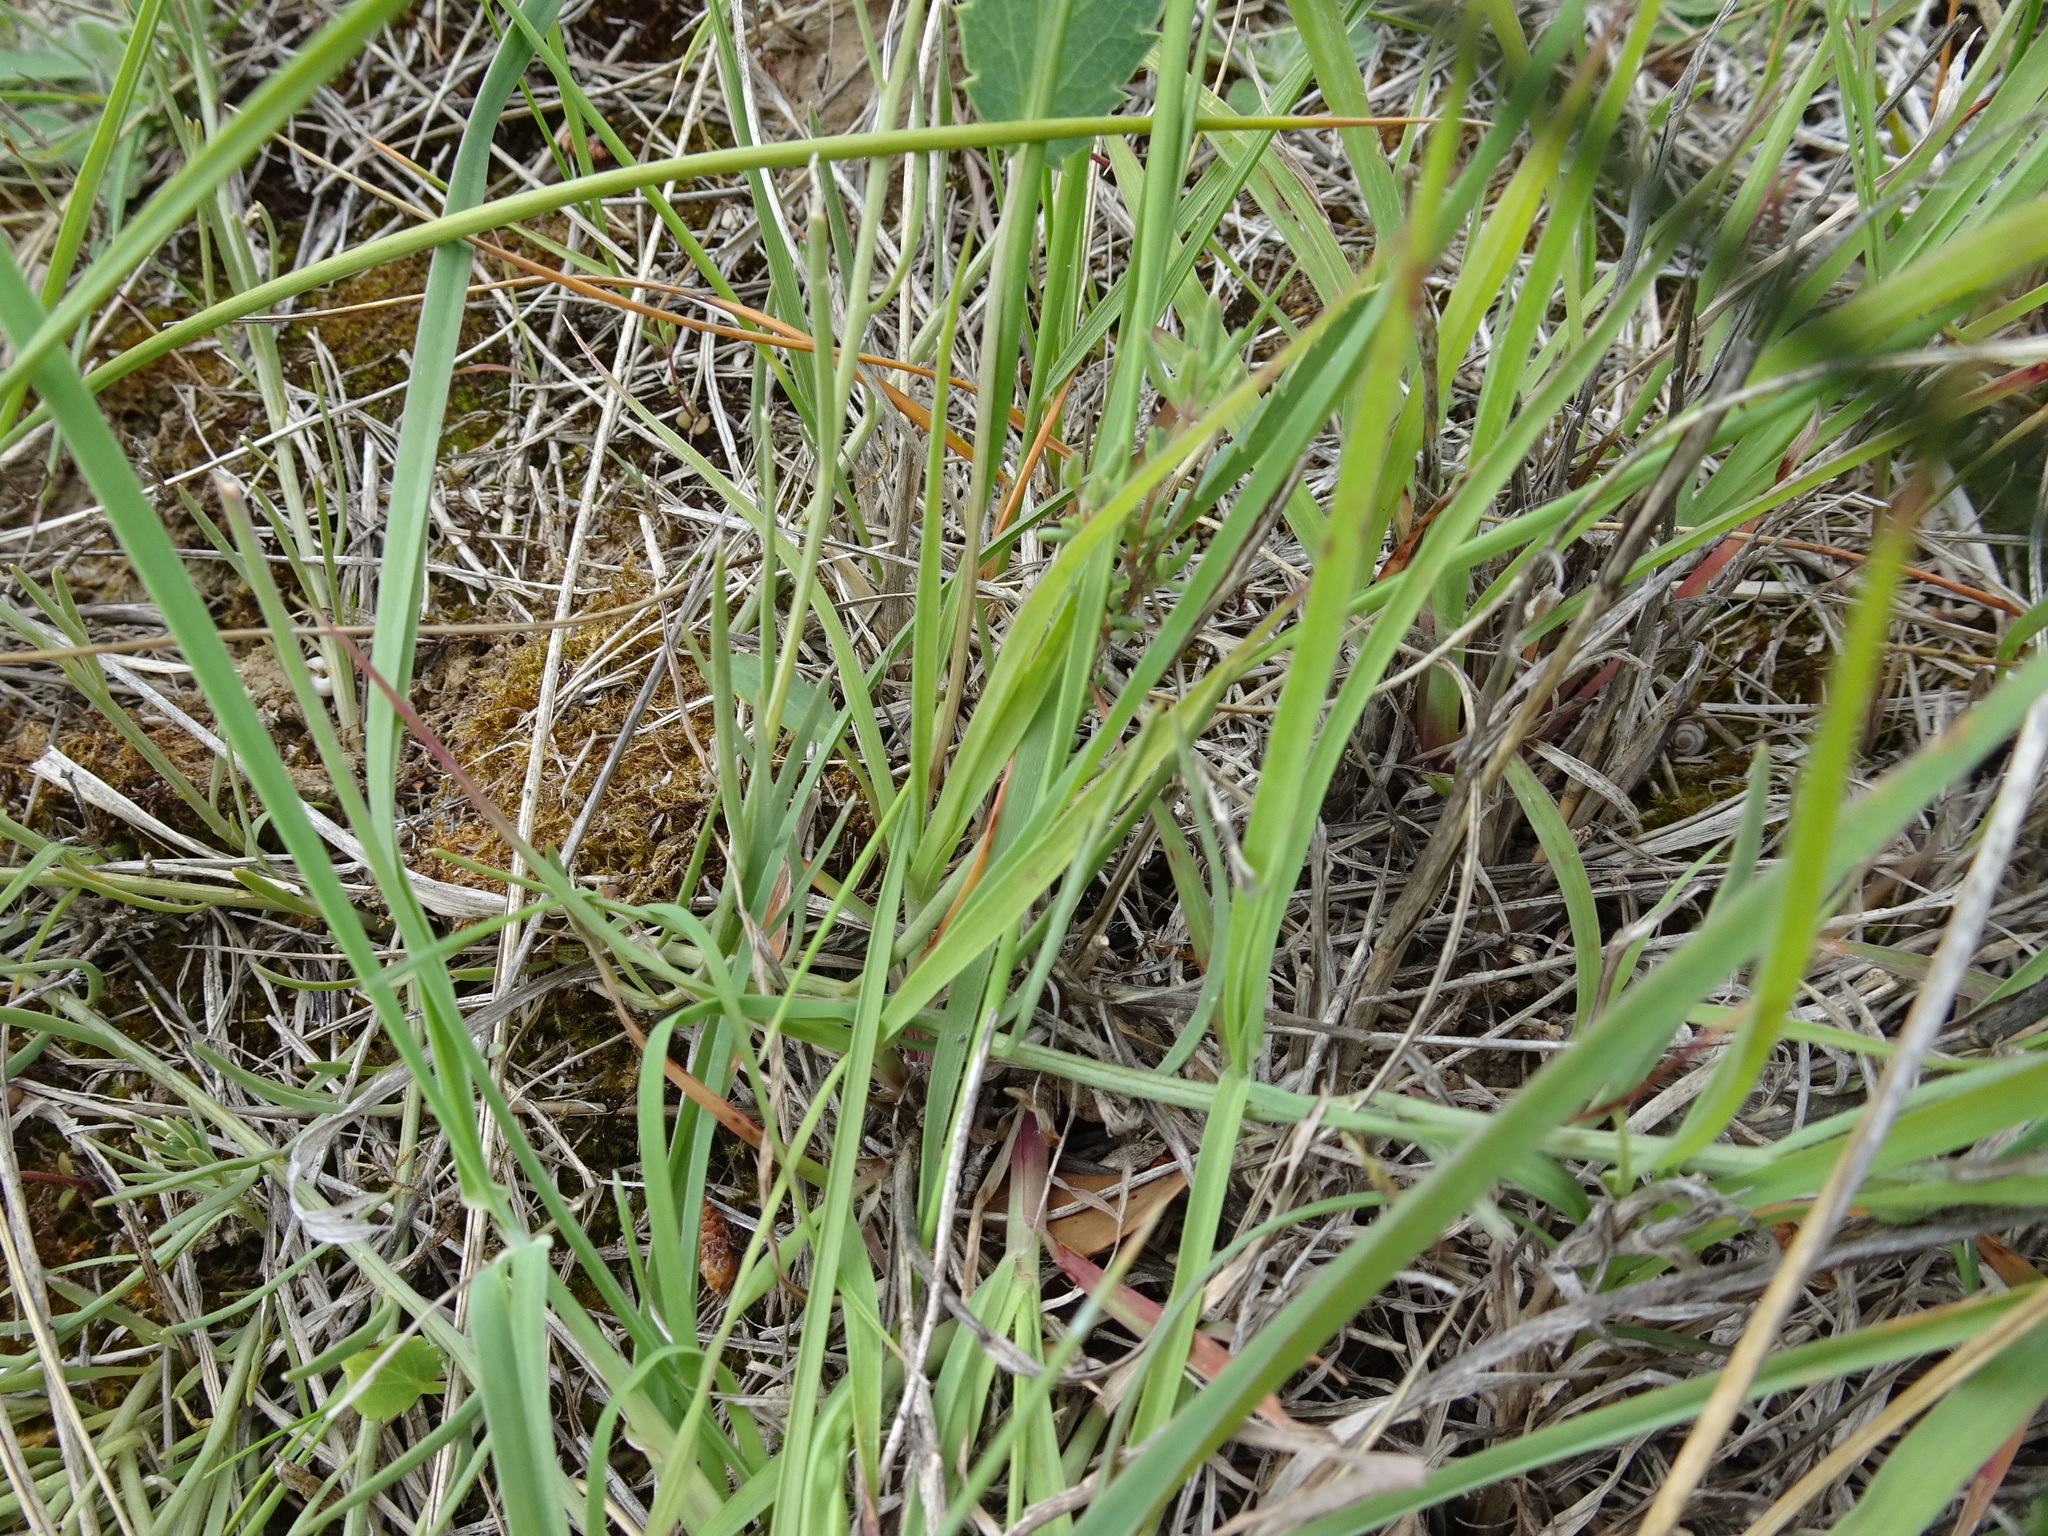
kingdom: Plantae
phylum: Tracheophyta
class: Magnoliopsida
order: Santalales
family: Thesiaceae
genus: Thesium
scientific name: Thesium divaricatum
